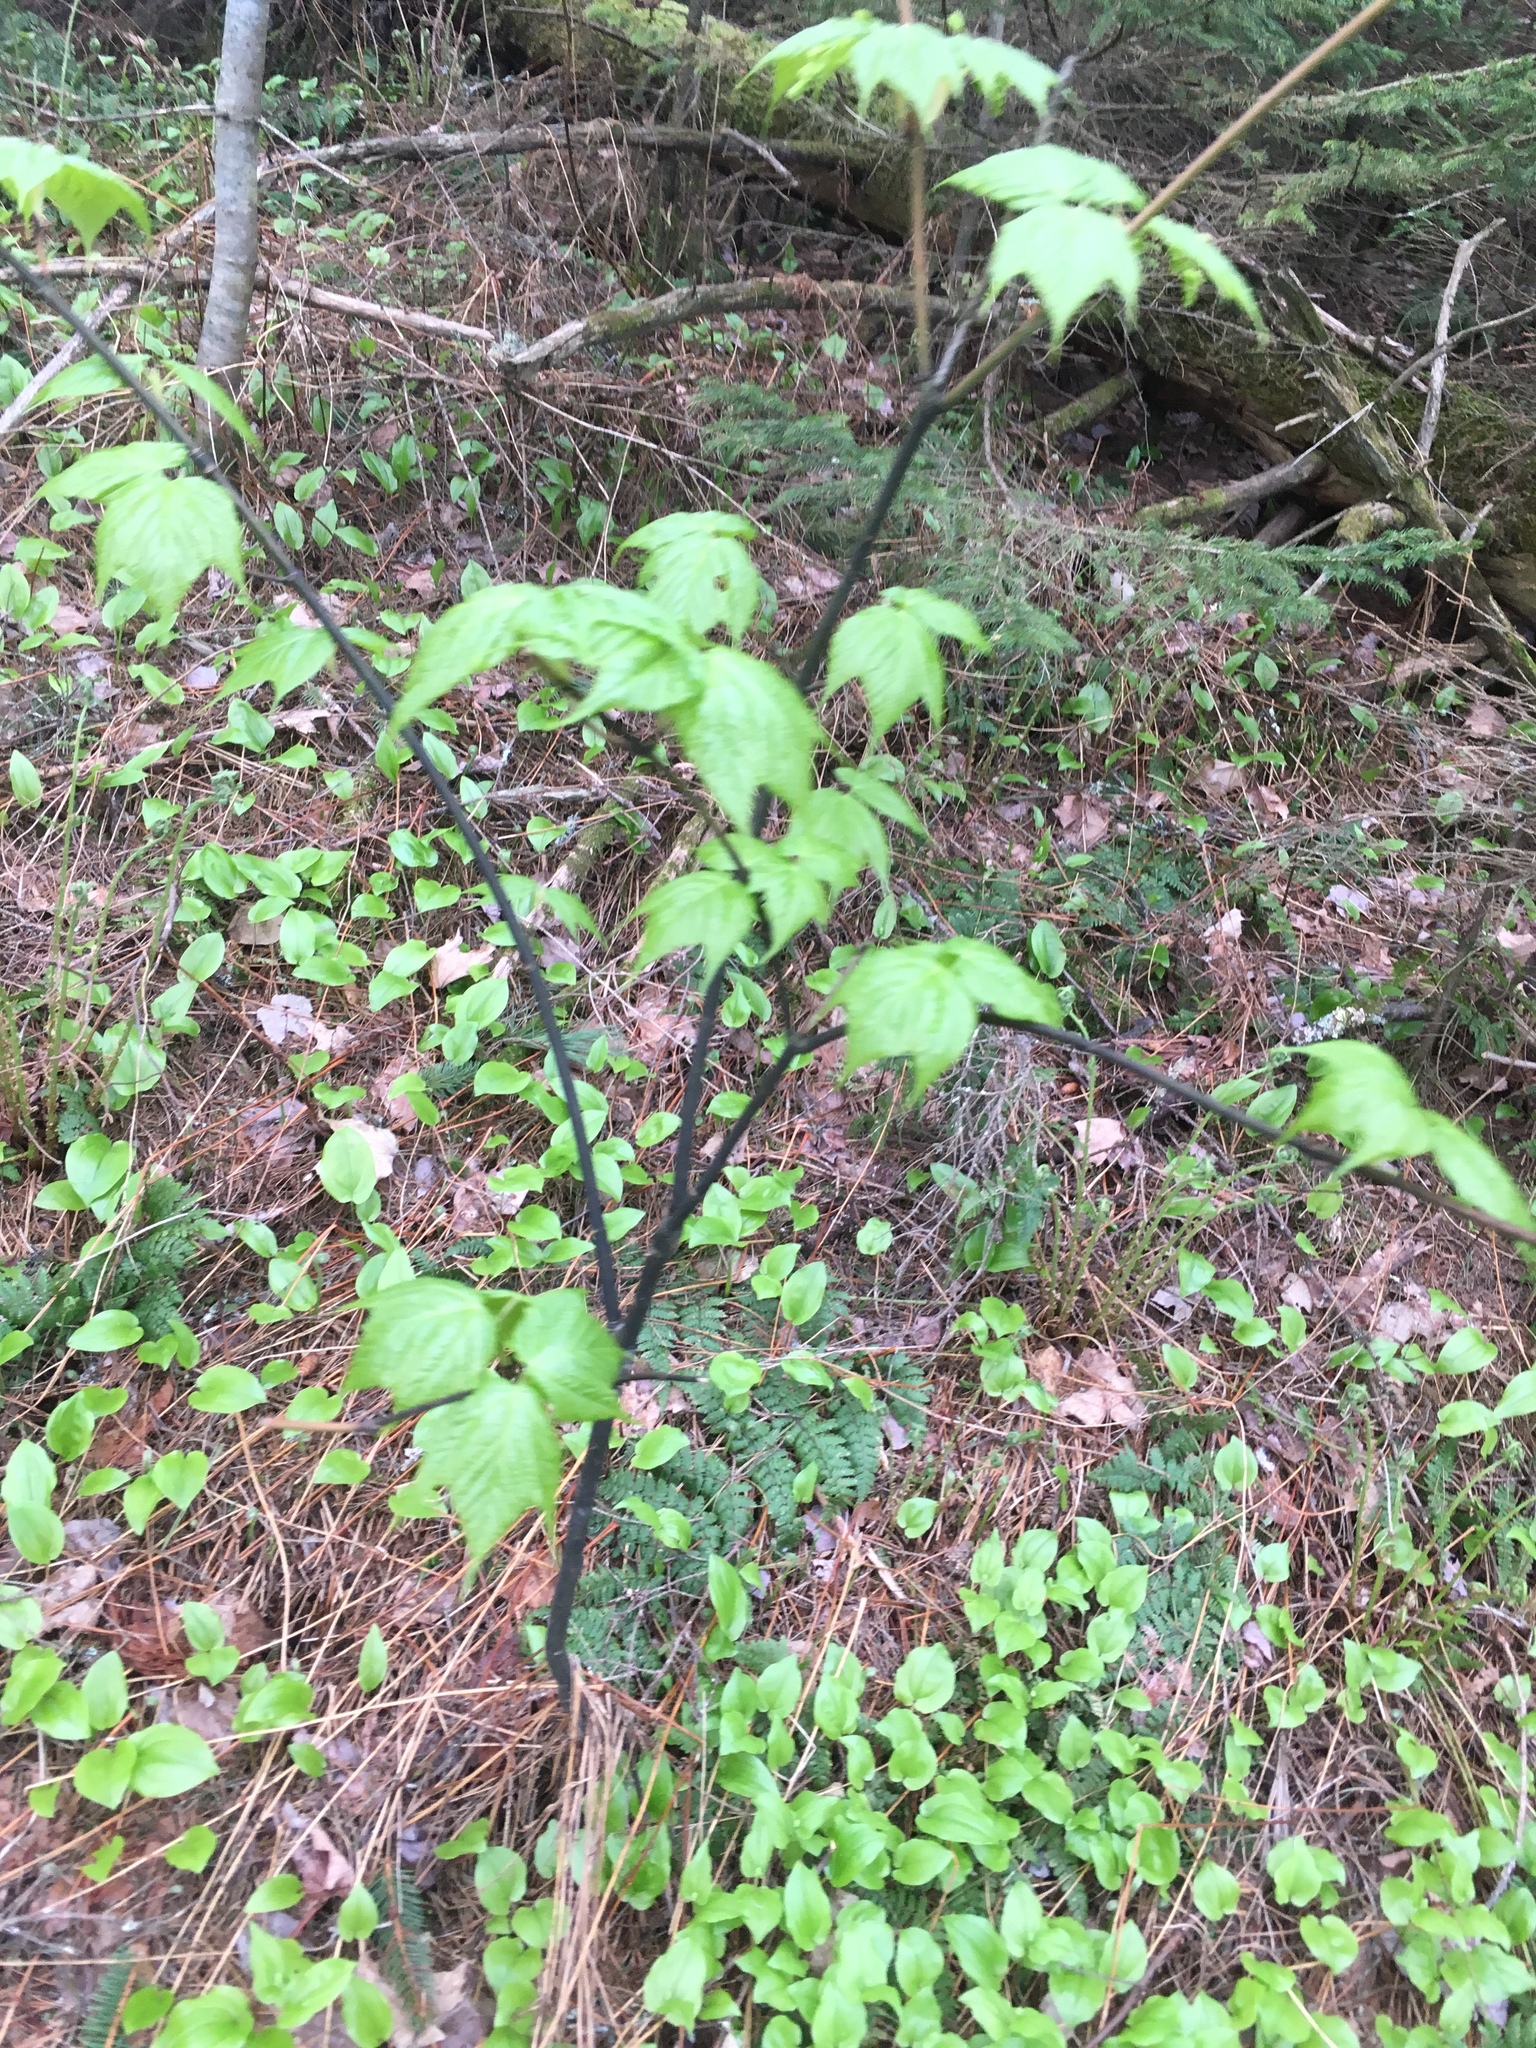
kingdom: Plantae
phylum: Tracheophyta
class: Magnoliopsida
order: Sapindales
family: Sapindaceae
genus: Acer
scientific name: Acer pensylvanicum
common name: Moosewood
